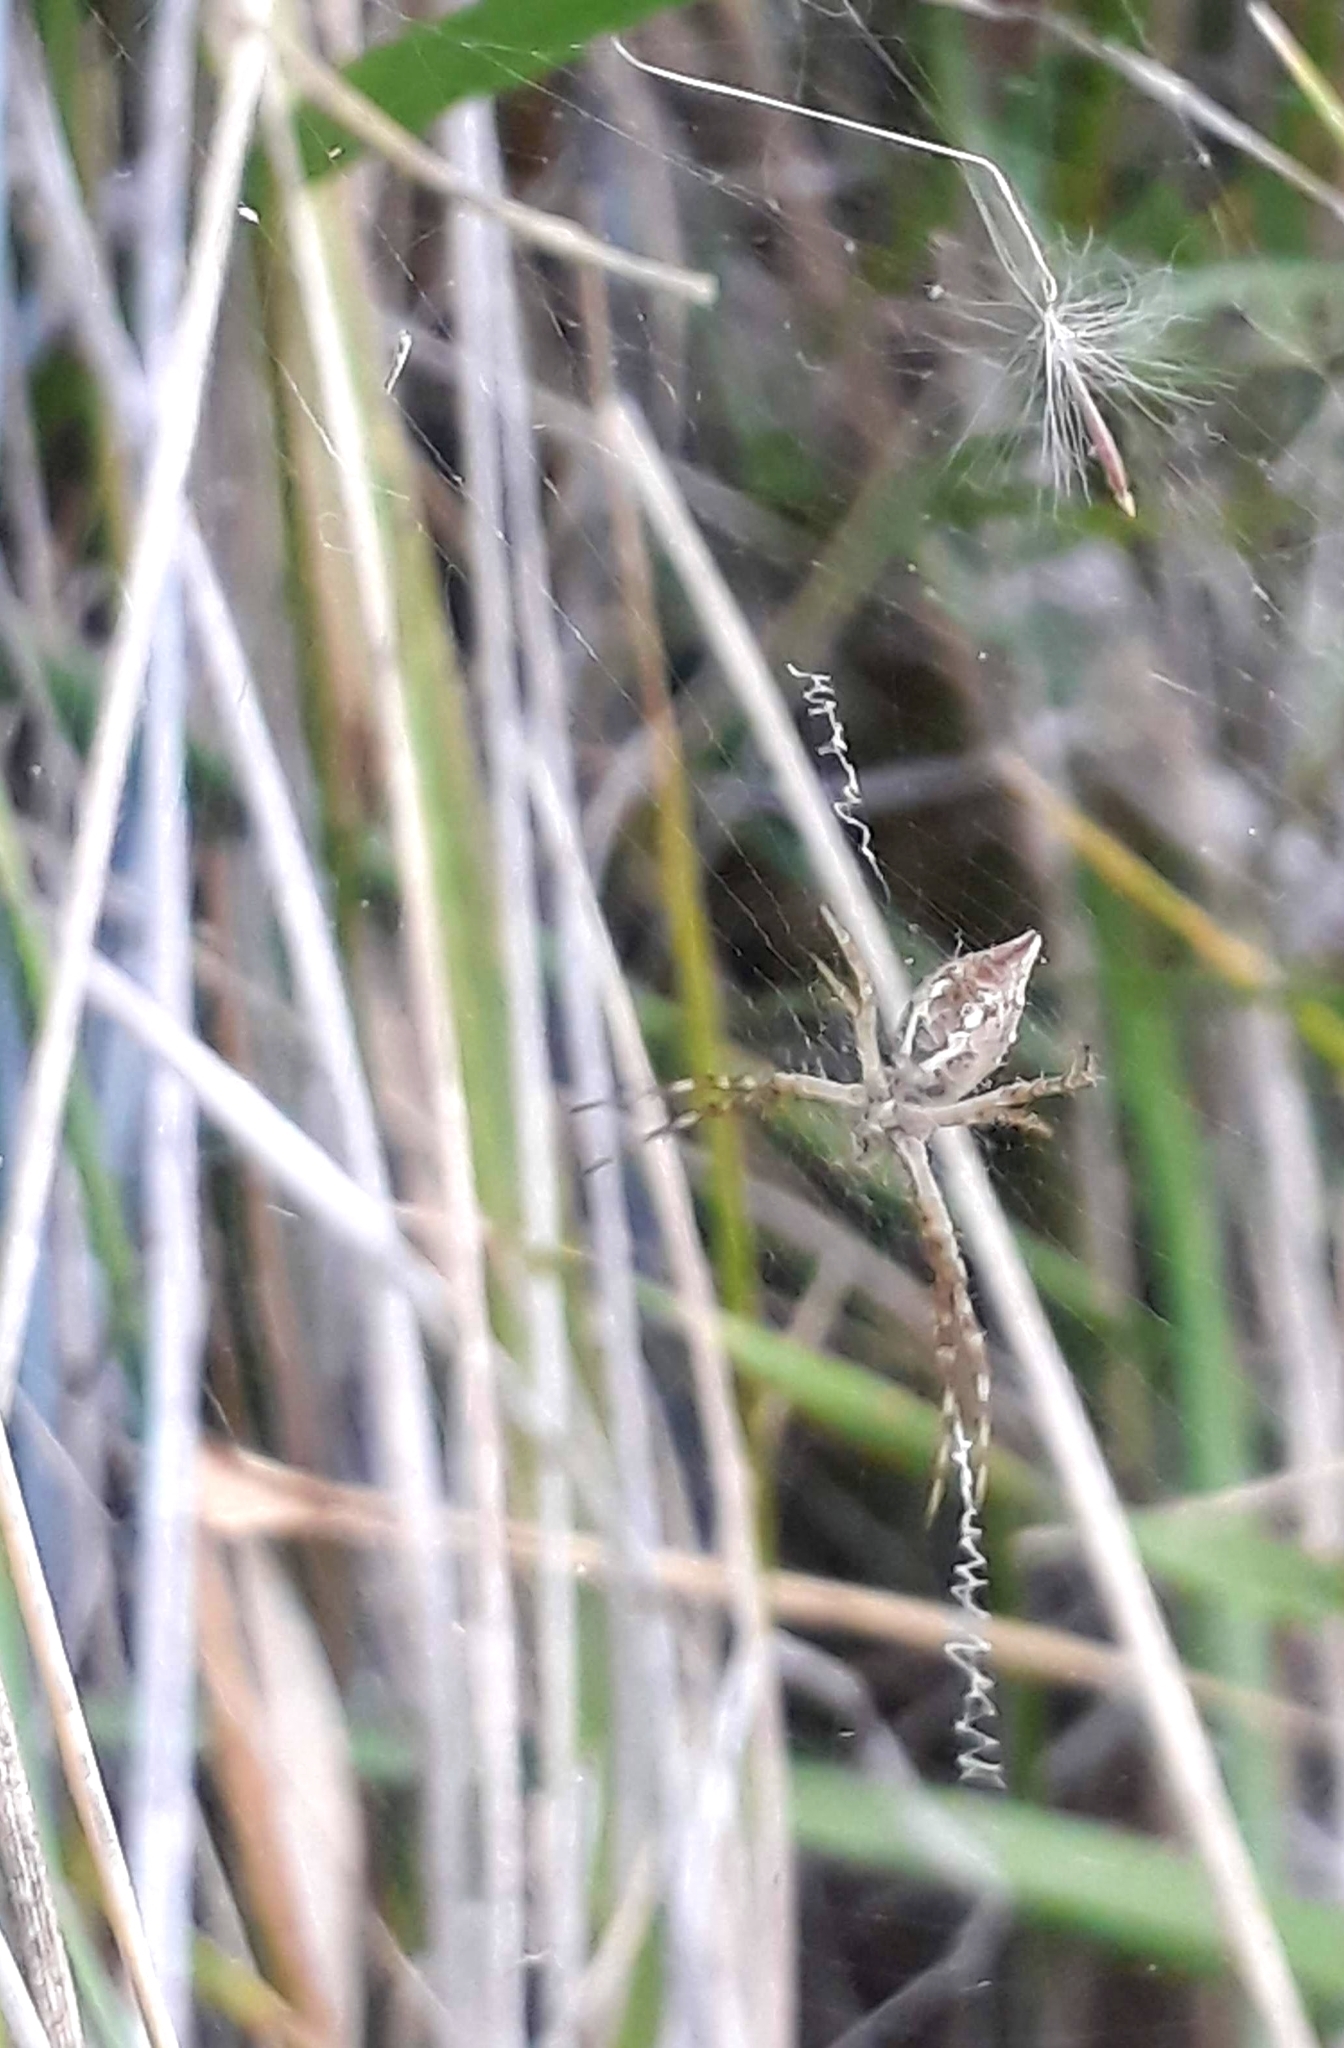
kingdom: Animalia
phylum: Arthropoda
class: Arachnida
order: Araneae
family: Araneidae
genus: Argiope
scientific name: Argiope argentata
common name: Orb weavers
